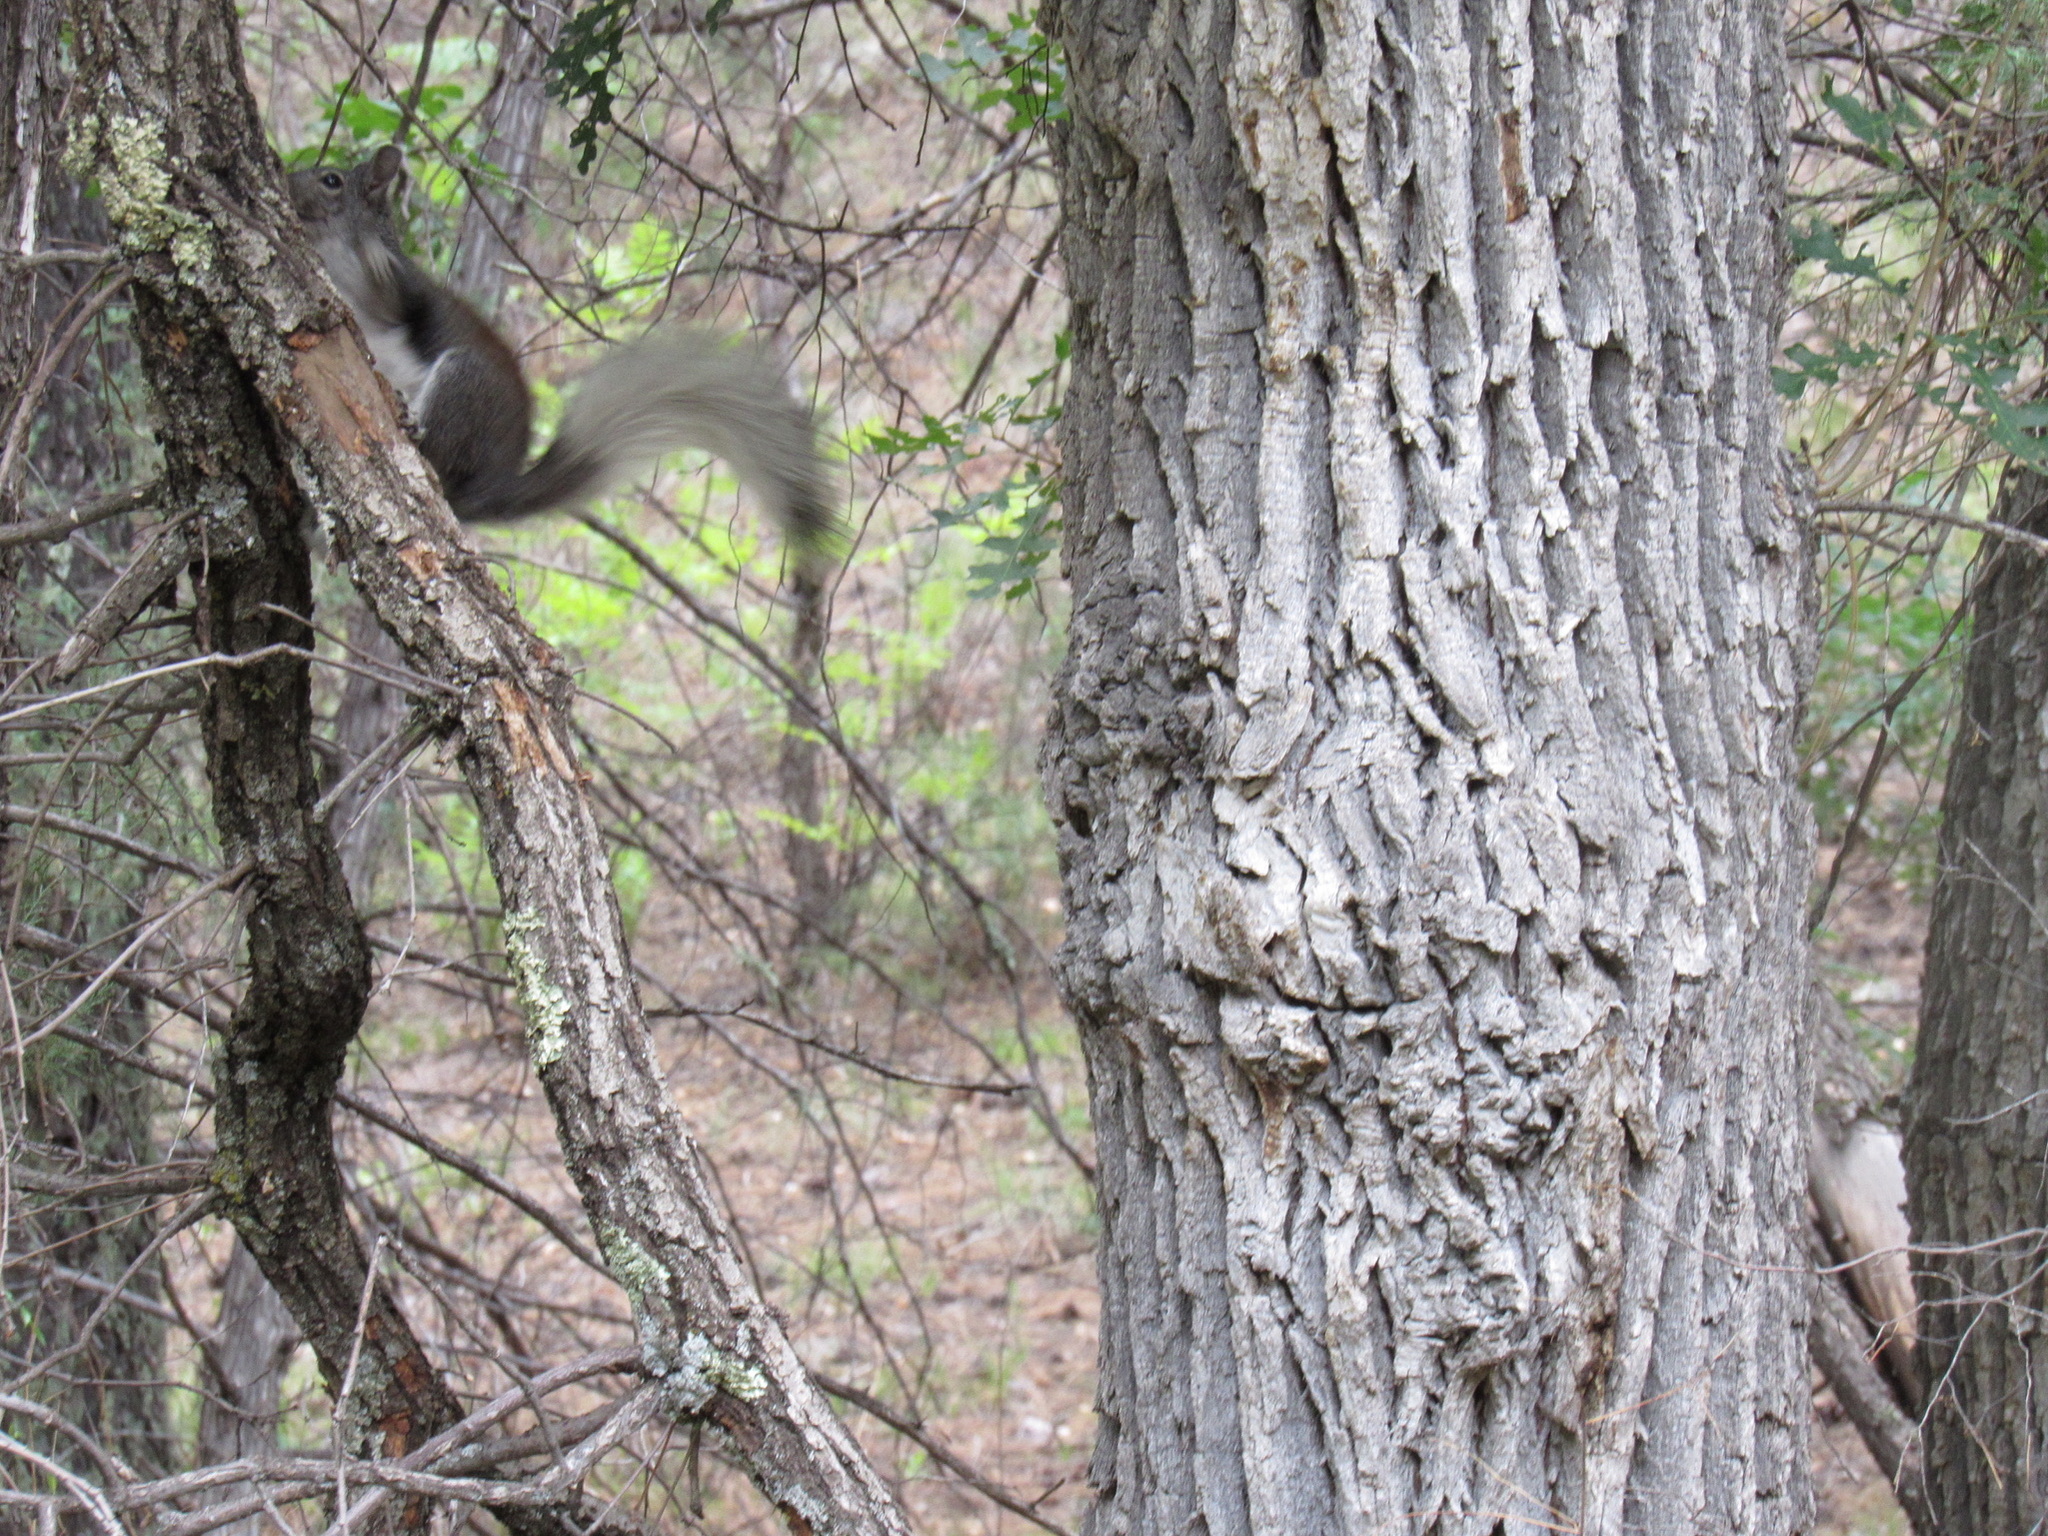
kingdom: Animalia
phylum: Chordata
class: Mammalia
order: Rodentia
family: Sciuridae
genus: Sciurus
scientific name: Sciurus aberti
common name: Abert's squirrel
